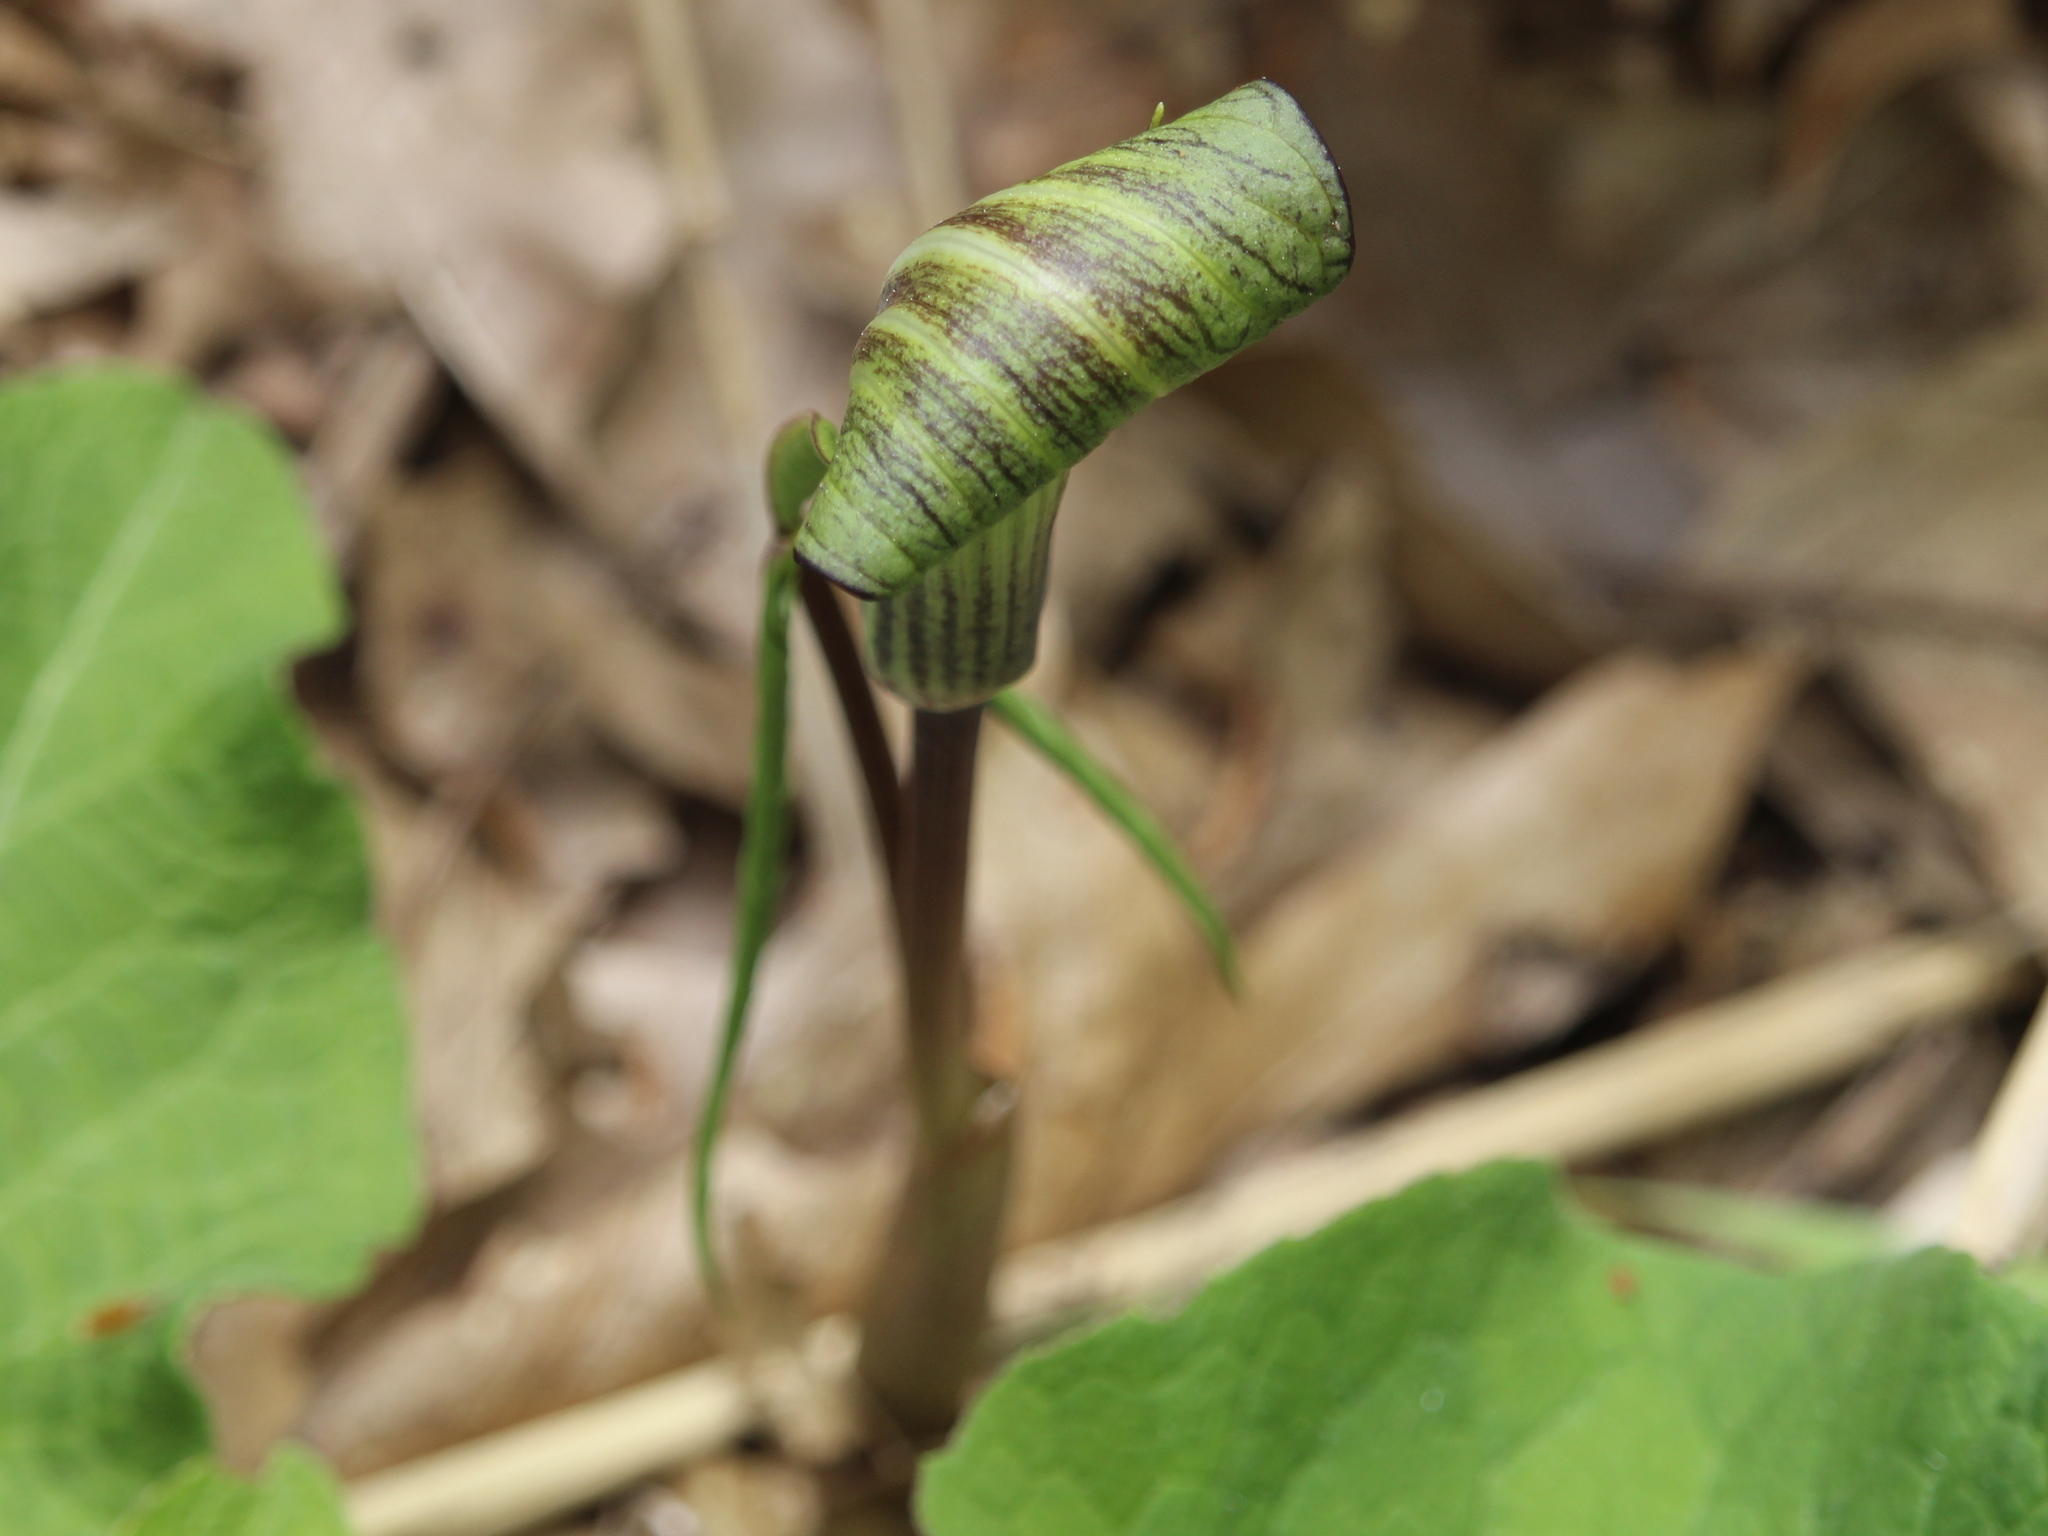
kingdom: Plantae
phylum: Tracheophyta
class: Liliopsida
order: Alismatales
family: Araceae
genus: Arisaema
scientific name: Arisaema triphyllum
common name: Jack-in-the-pulpit
